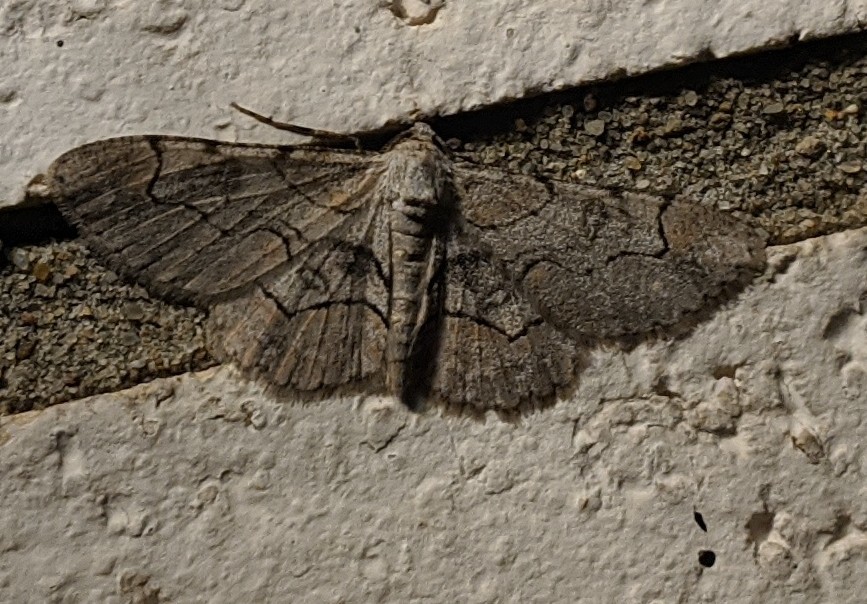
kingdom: Animalia
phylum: Arthropoda
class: Insecta
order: Lepidoptera
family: Geometridae
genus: Iridopsis
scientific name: Iridopsis larvaria
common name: Bent-line gray
